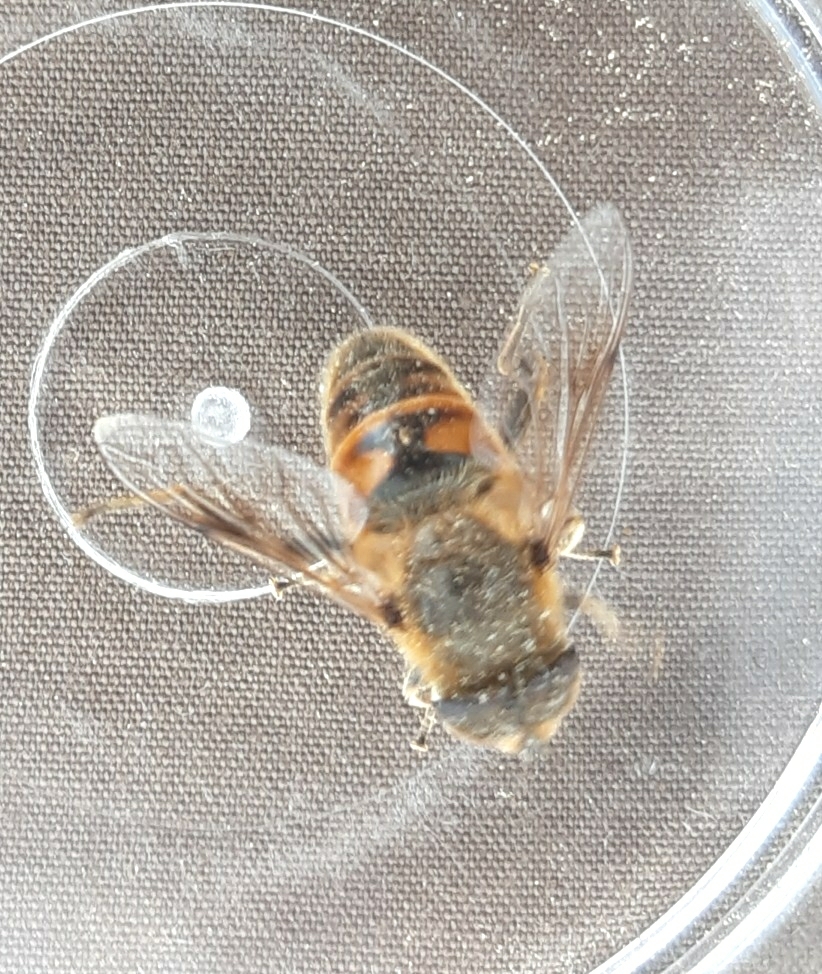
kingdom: Animalia
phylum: Arthropoda
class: Insecta
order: Diptera
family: Syrphidae
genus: Eristalis
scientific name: Eristalis tenax
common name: Drone fly
